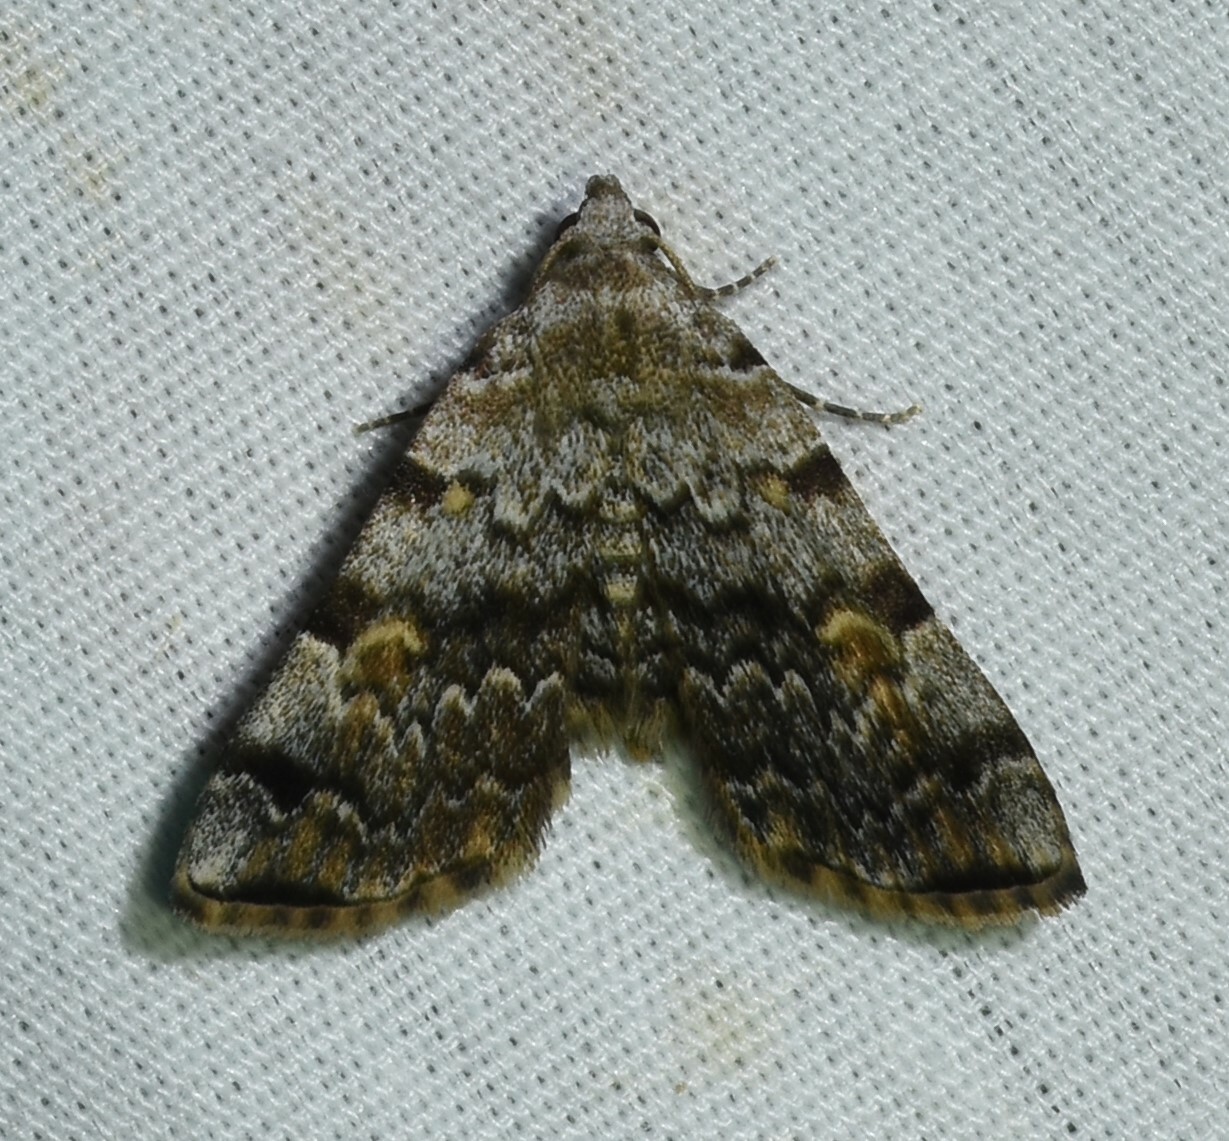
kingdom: Animalia
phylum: Arthropoda
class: Insecta
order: Lepidoptera
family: Erebidae
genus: Idia
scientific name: Idia americalis
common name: American idia moth
